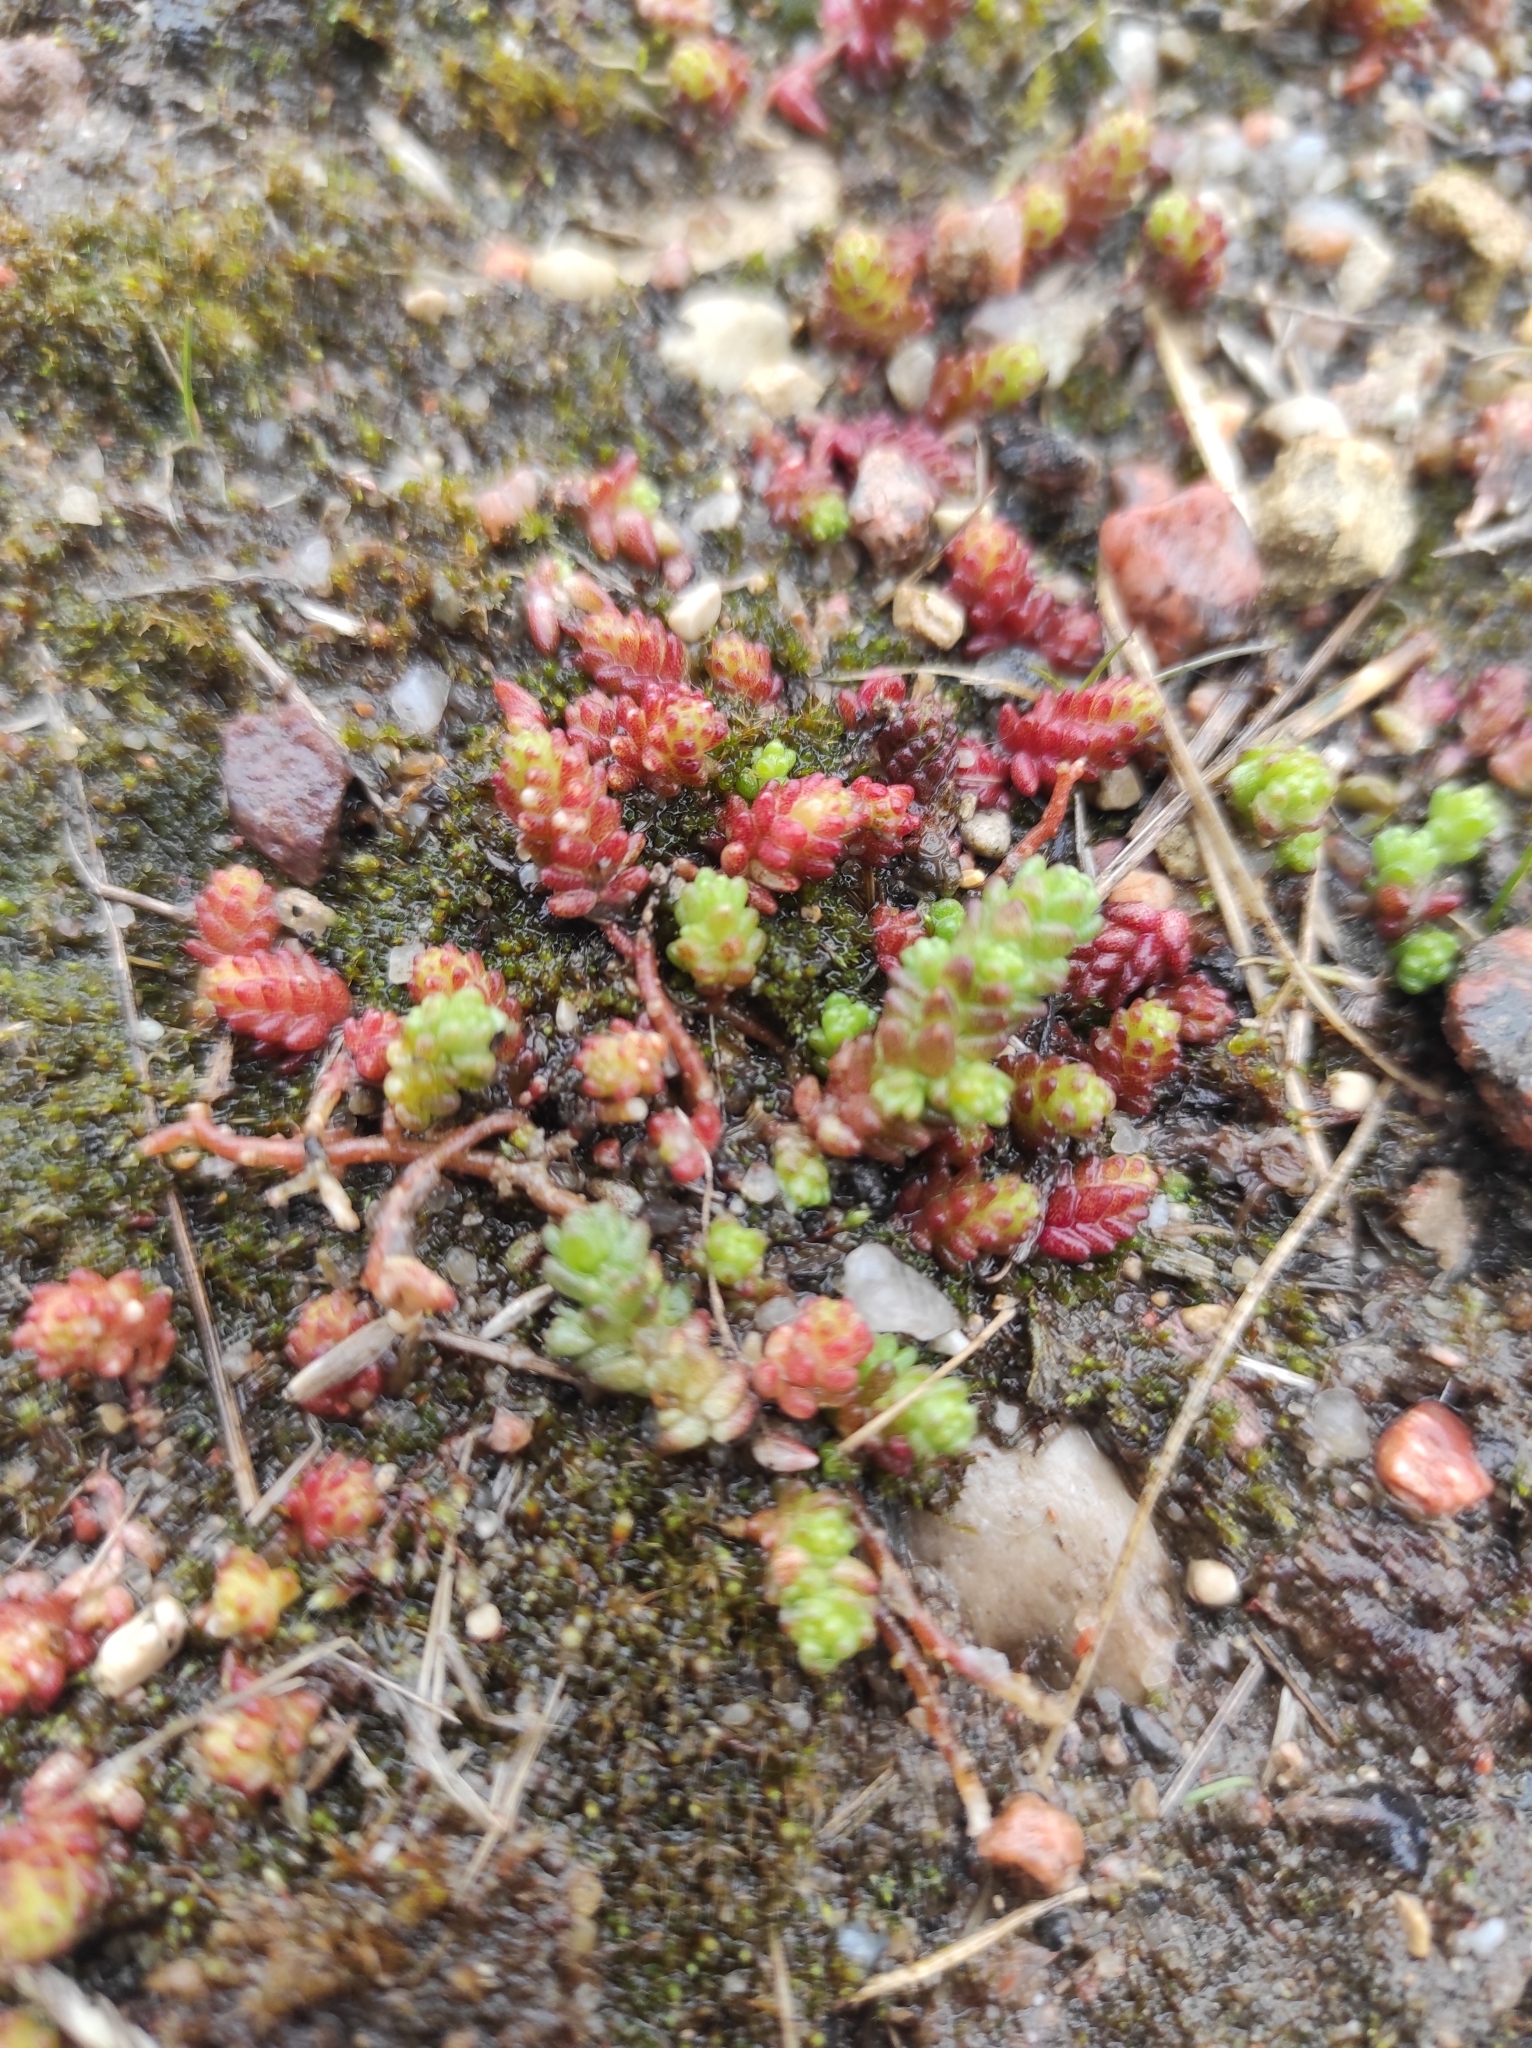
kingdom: Plantae
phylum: Tracheophyta
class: Magnoliopsida
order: Saxifragales
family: Crassulaceae
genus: Sedum
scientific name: Sedum acre
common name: Biting stonecrop
